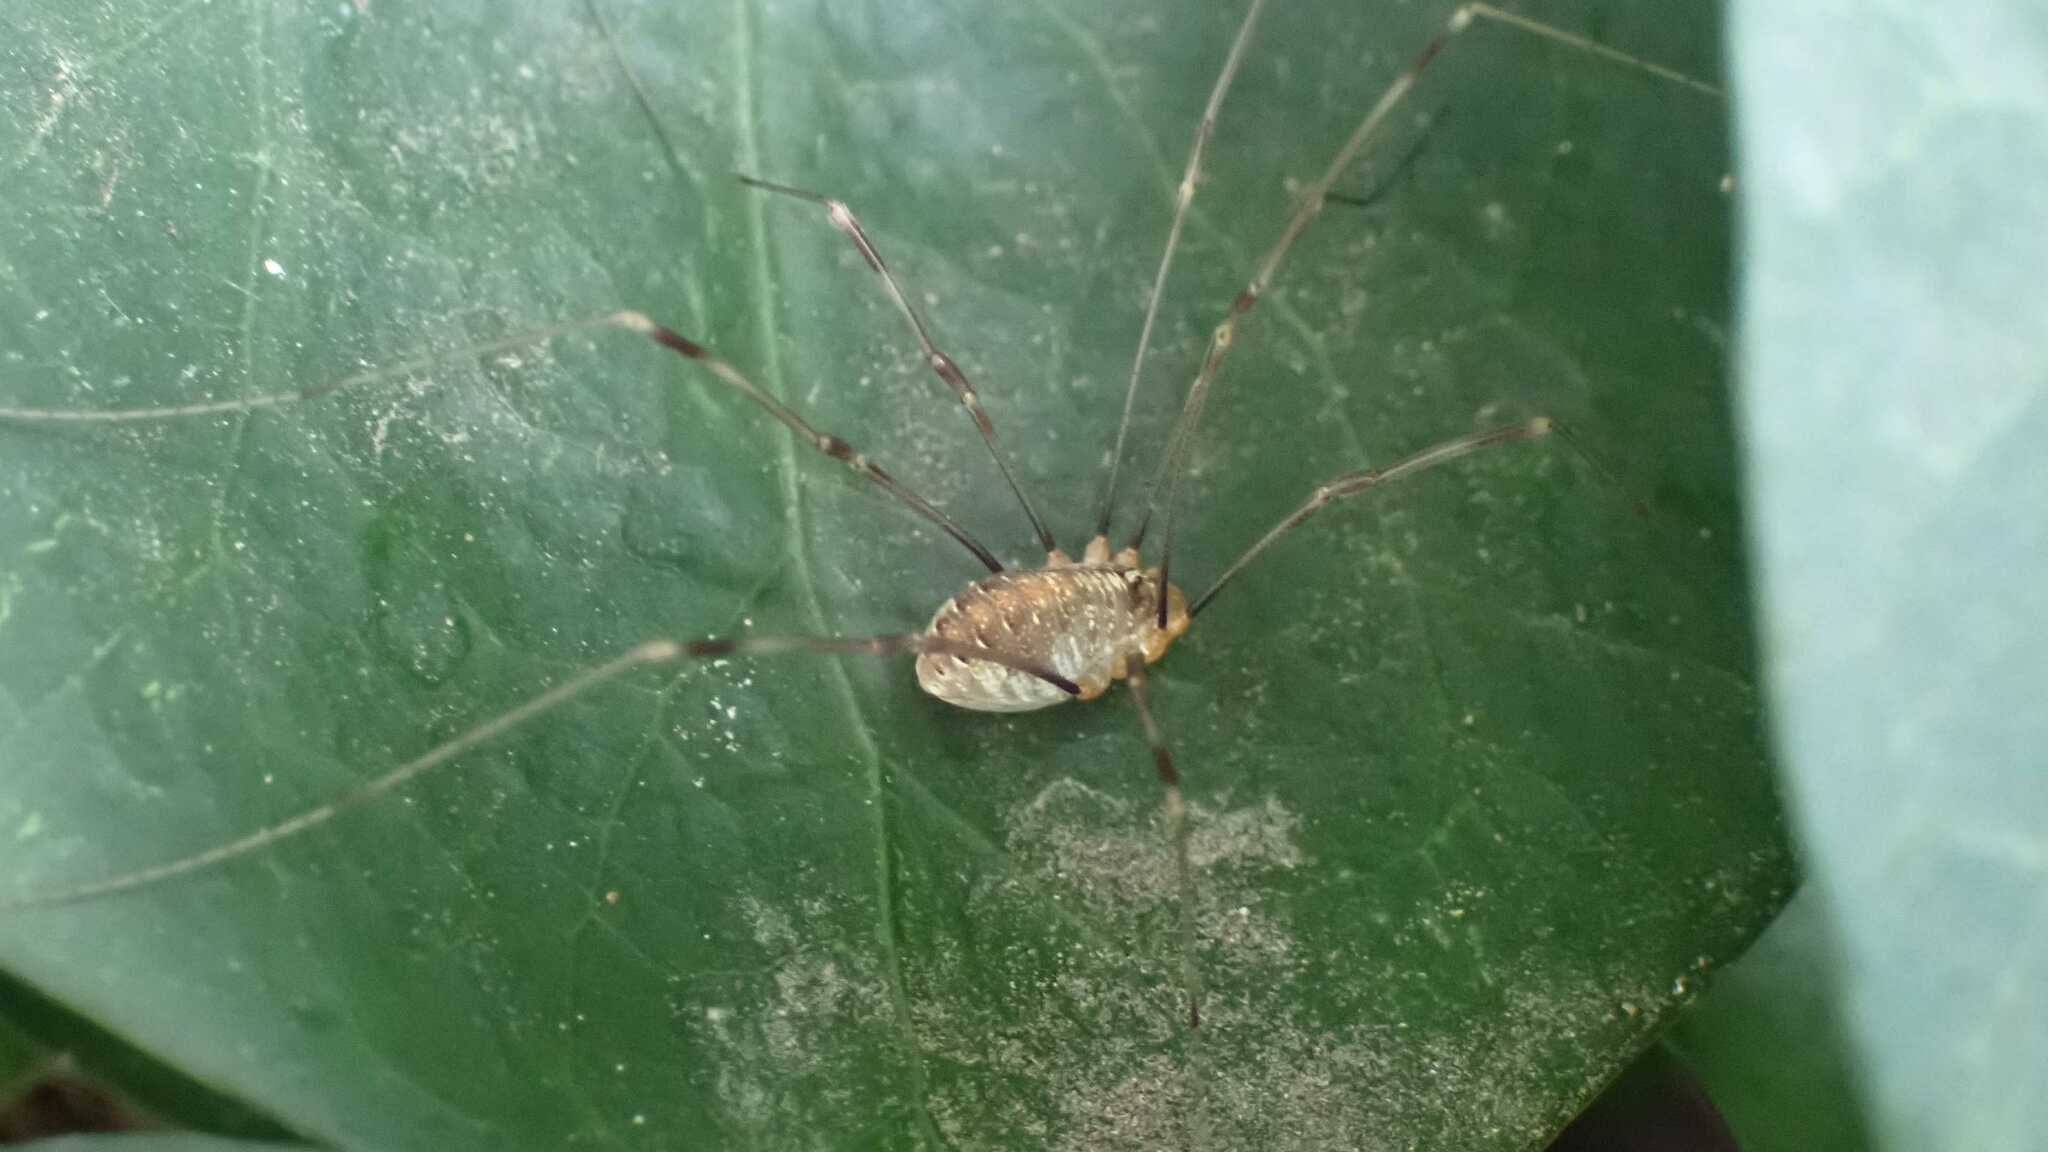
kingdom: Animalia
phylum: Arthropoda
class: Arachnida
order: Opiliones
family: Phalangiidae
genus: Opilio
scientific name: Opilio canestrinii
